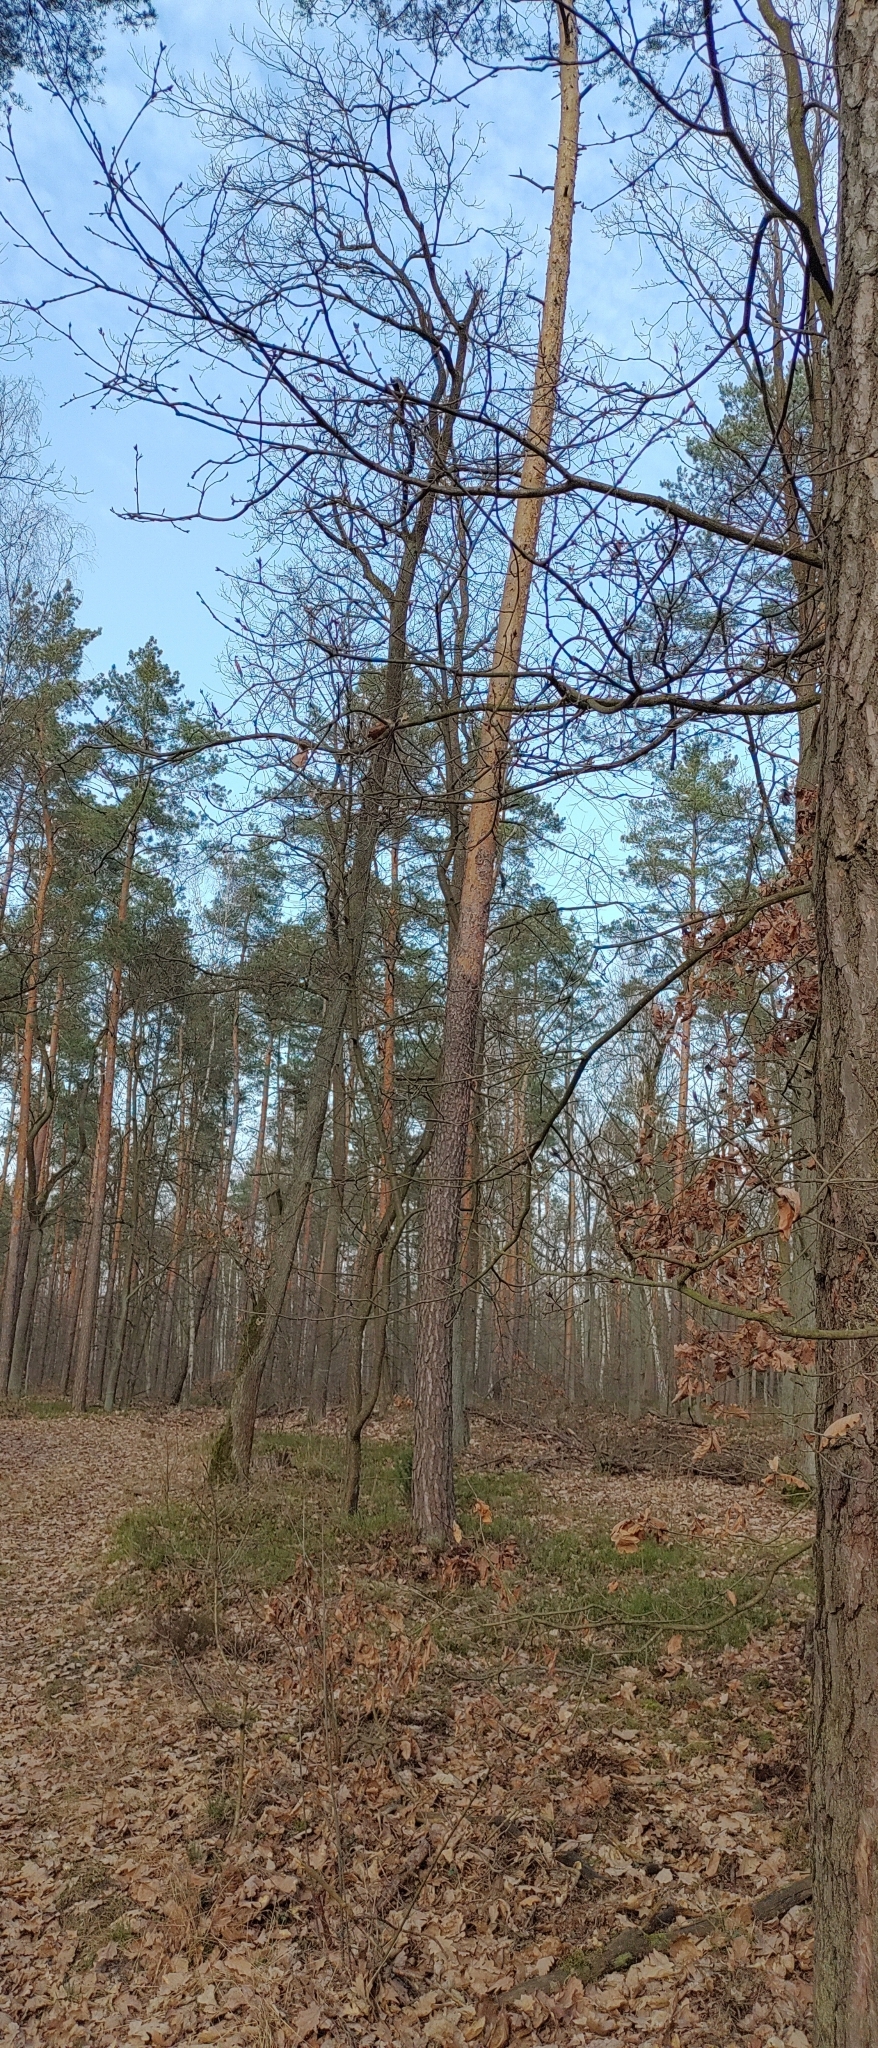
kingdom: Animalia
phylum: Chordata
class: Aves
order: Piciformes
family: Picidae
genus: Dryocopus
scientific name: Dryocopus martius
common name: Black woodpecker
